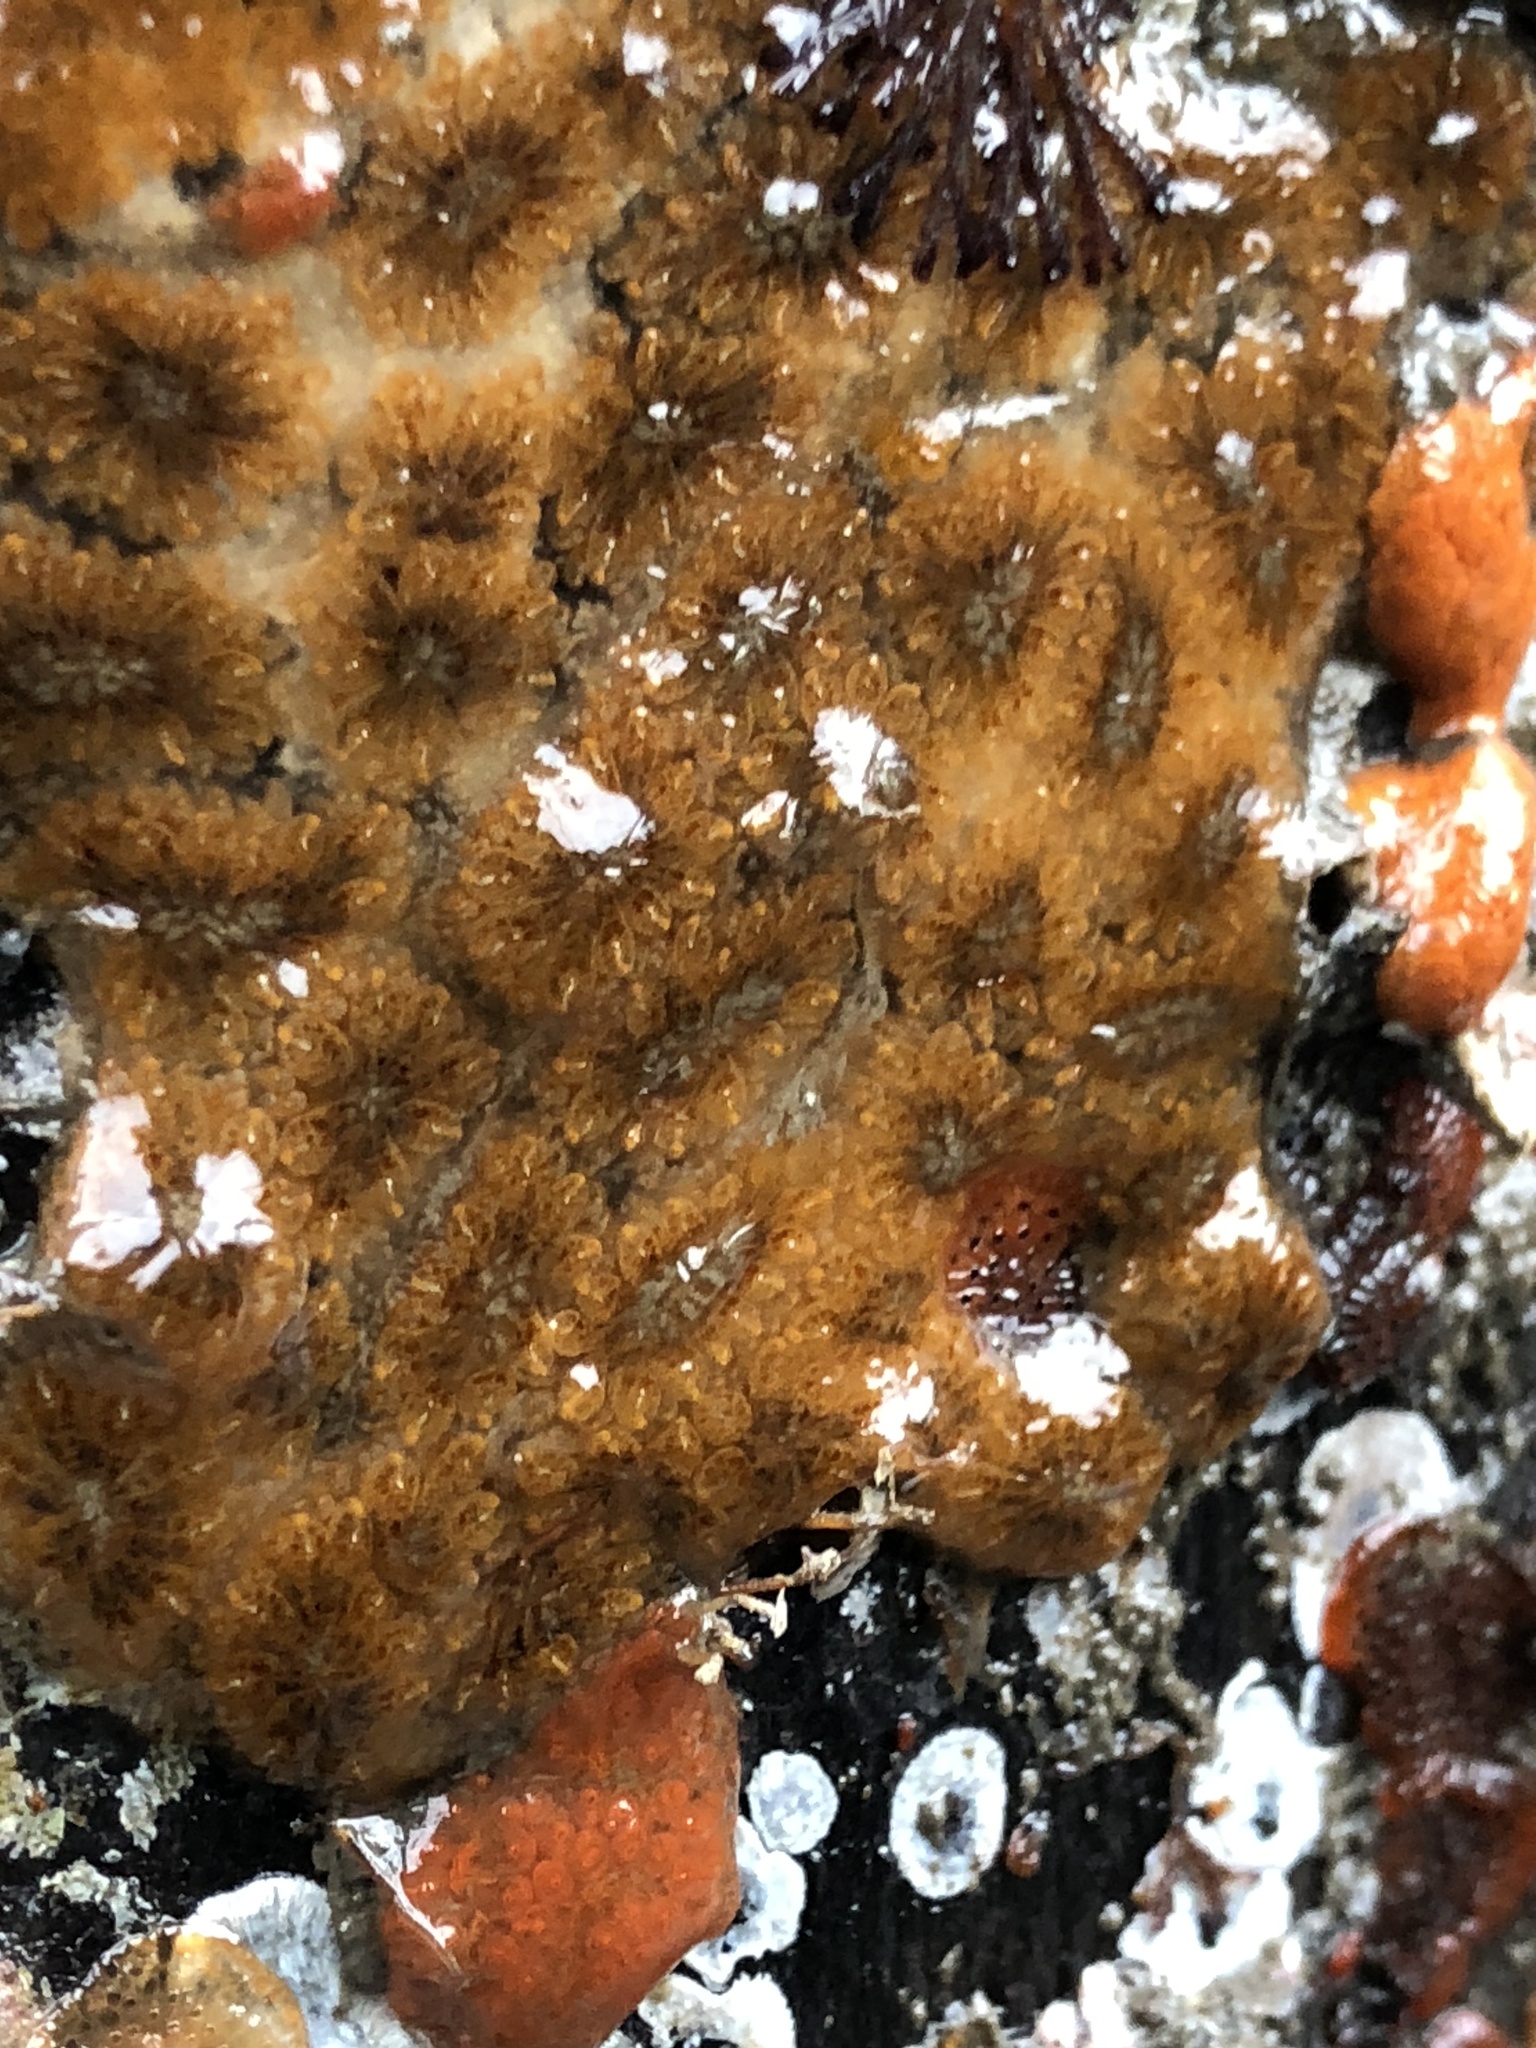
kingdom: Animalia
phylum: Chordata
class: Ascidiacea
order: Stolidobranchia
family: Styelidae
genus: Botryllus
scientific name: Botryllus schlosseri
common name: Golden star tunicate
